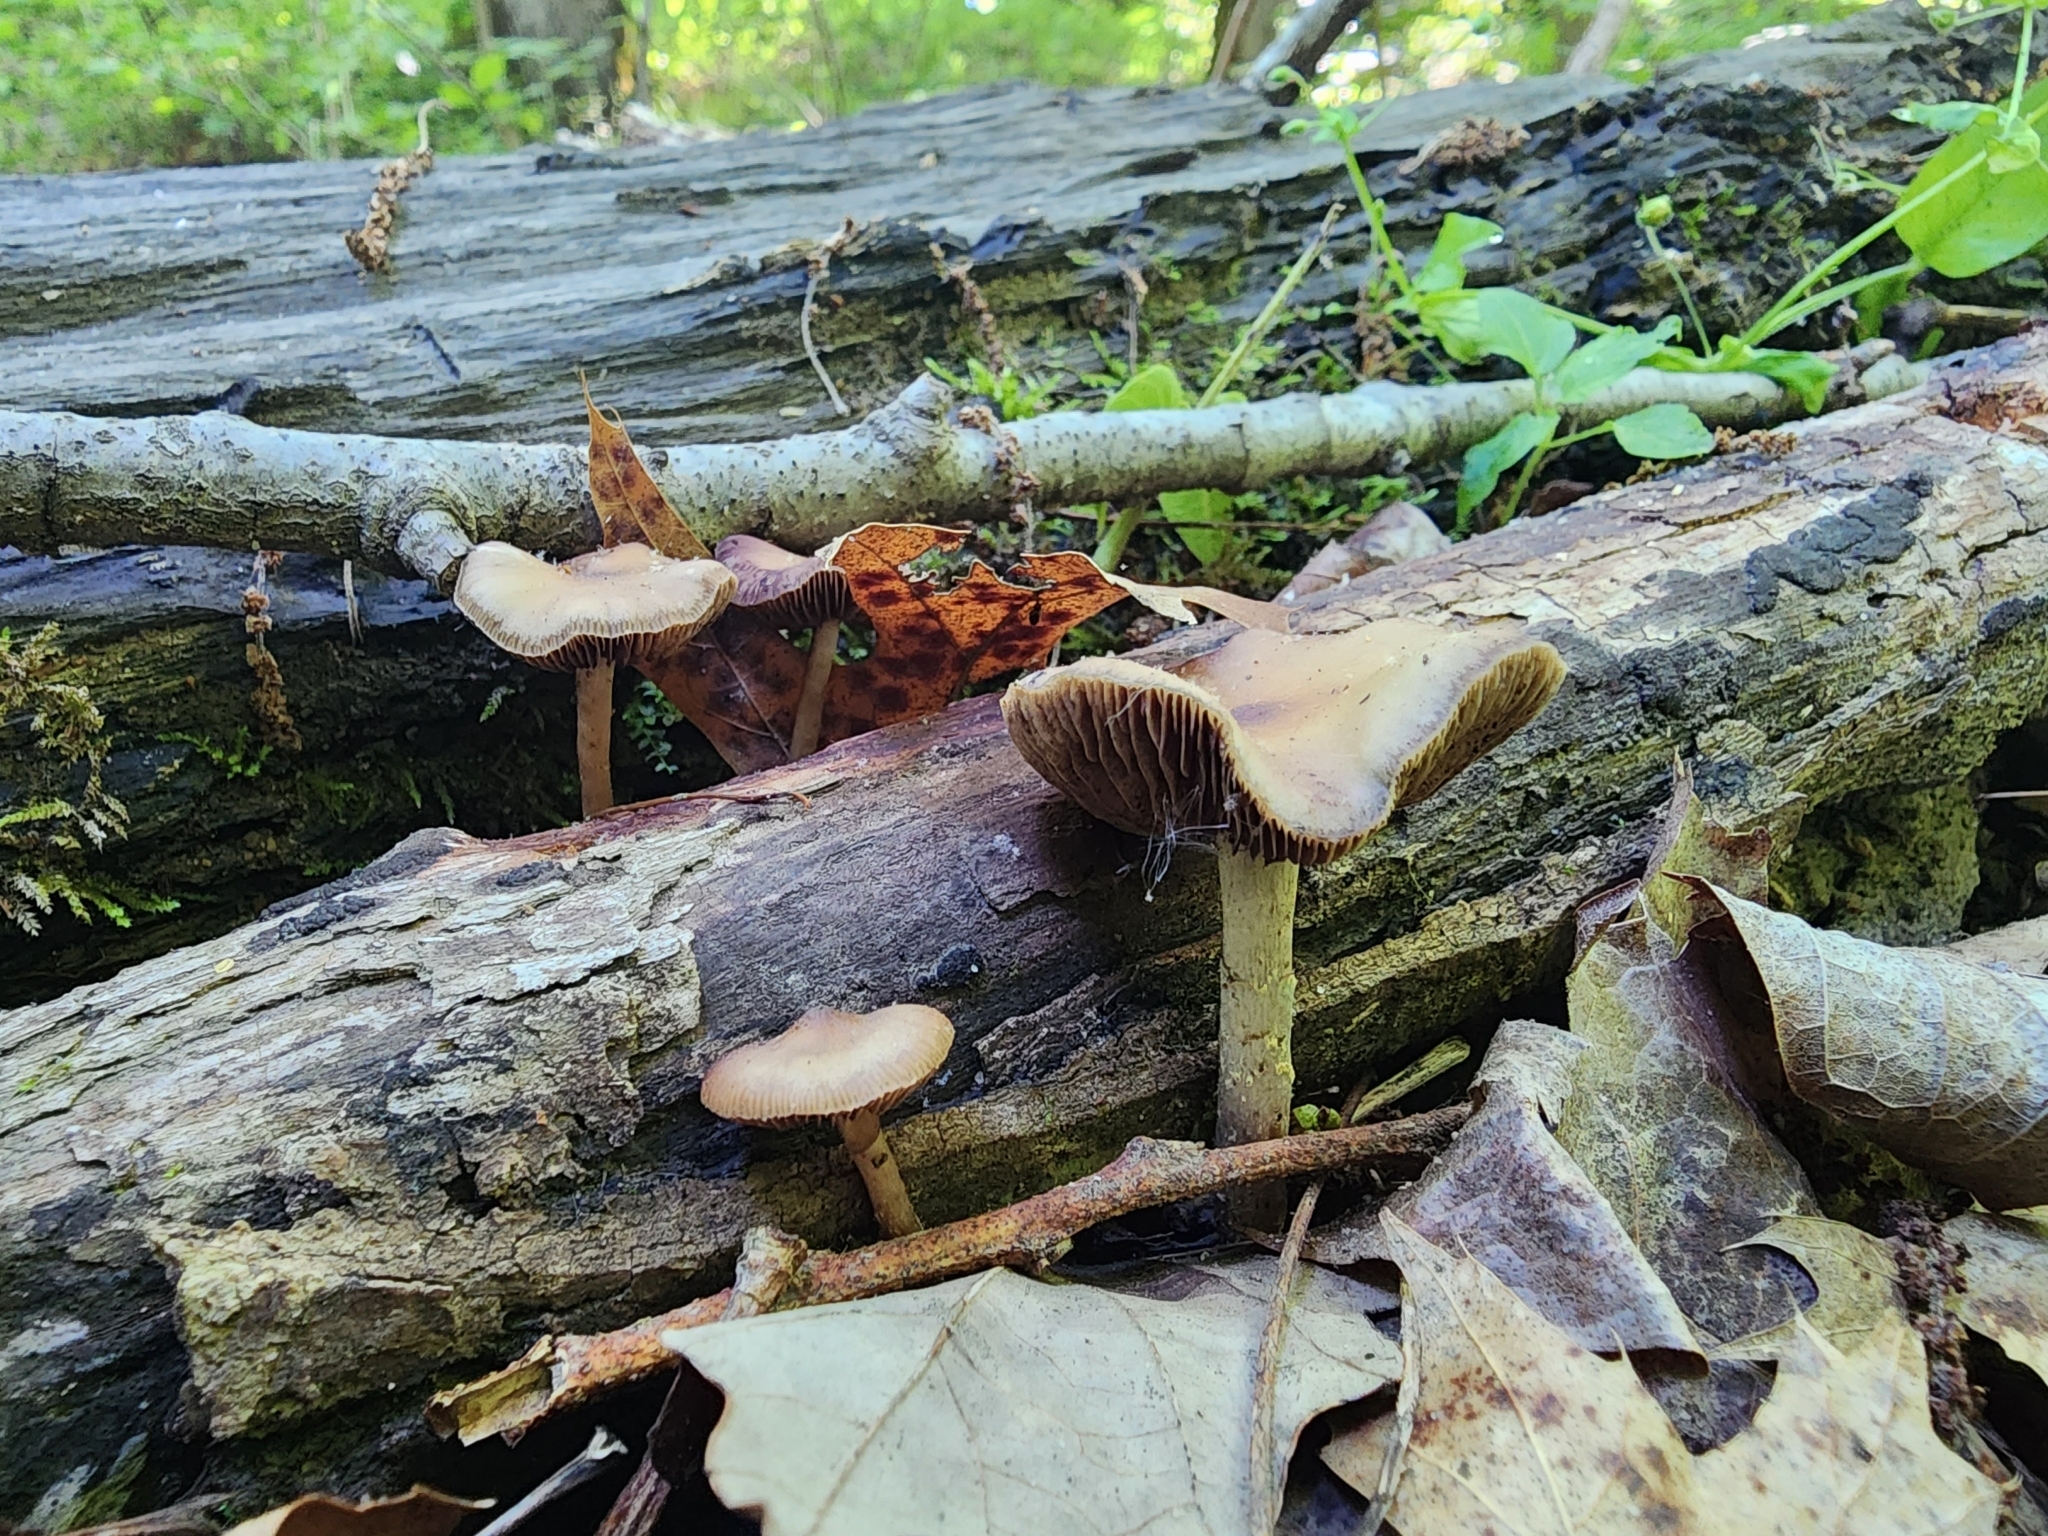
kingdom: Fungi
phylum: Basidiomycota
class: Agaricomycetes
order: Agaricales
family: Hymenogastraceae
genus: Psilocybe
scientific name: Psilocybe ovoideocystidiata
